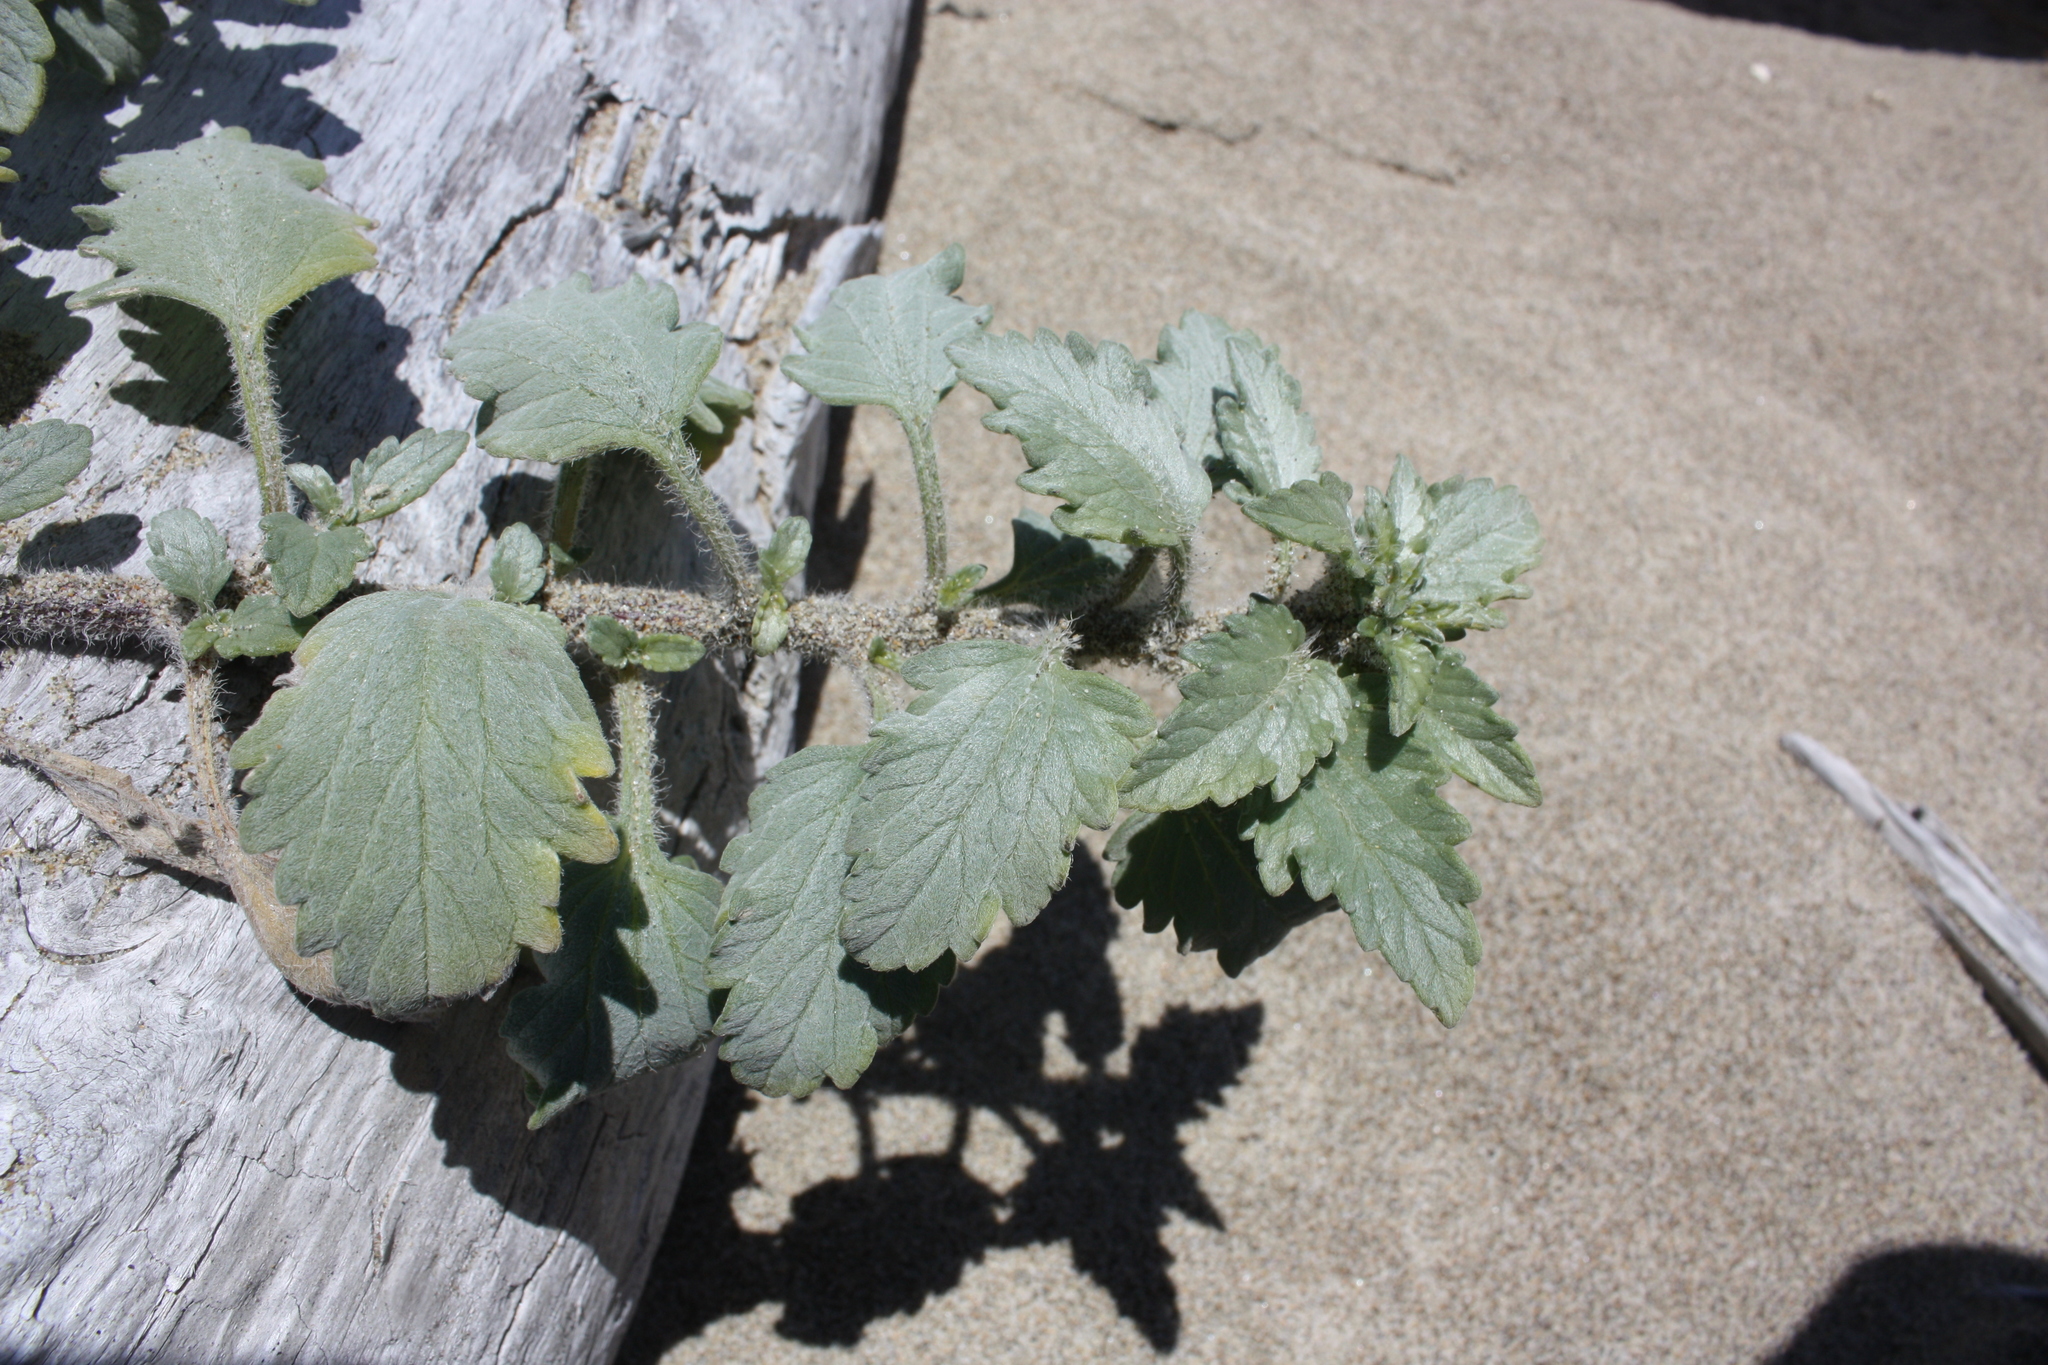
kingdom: Plantae
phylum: Tracheophyta
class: Magnoliopsida
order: Asterales
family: Asteraceae
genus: Ambrosia
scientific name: Ambrosia chamissonis
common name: Beachbur
